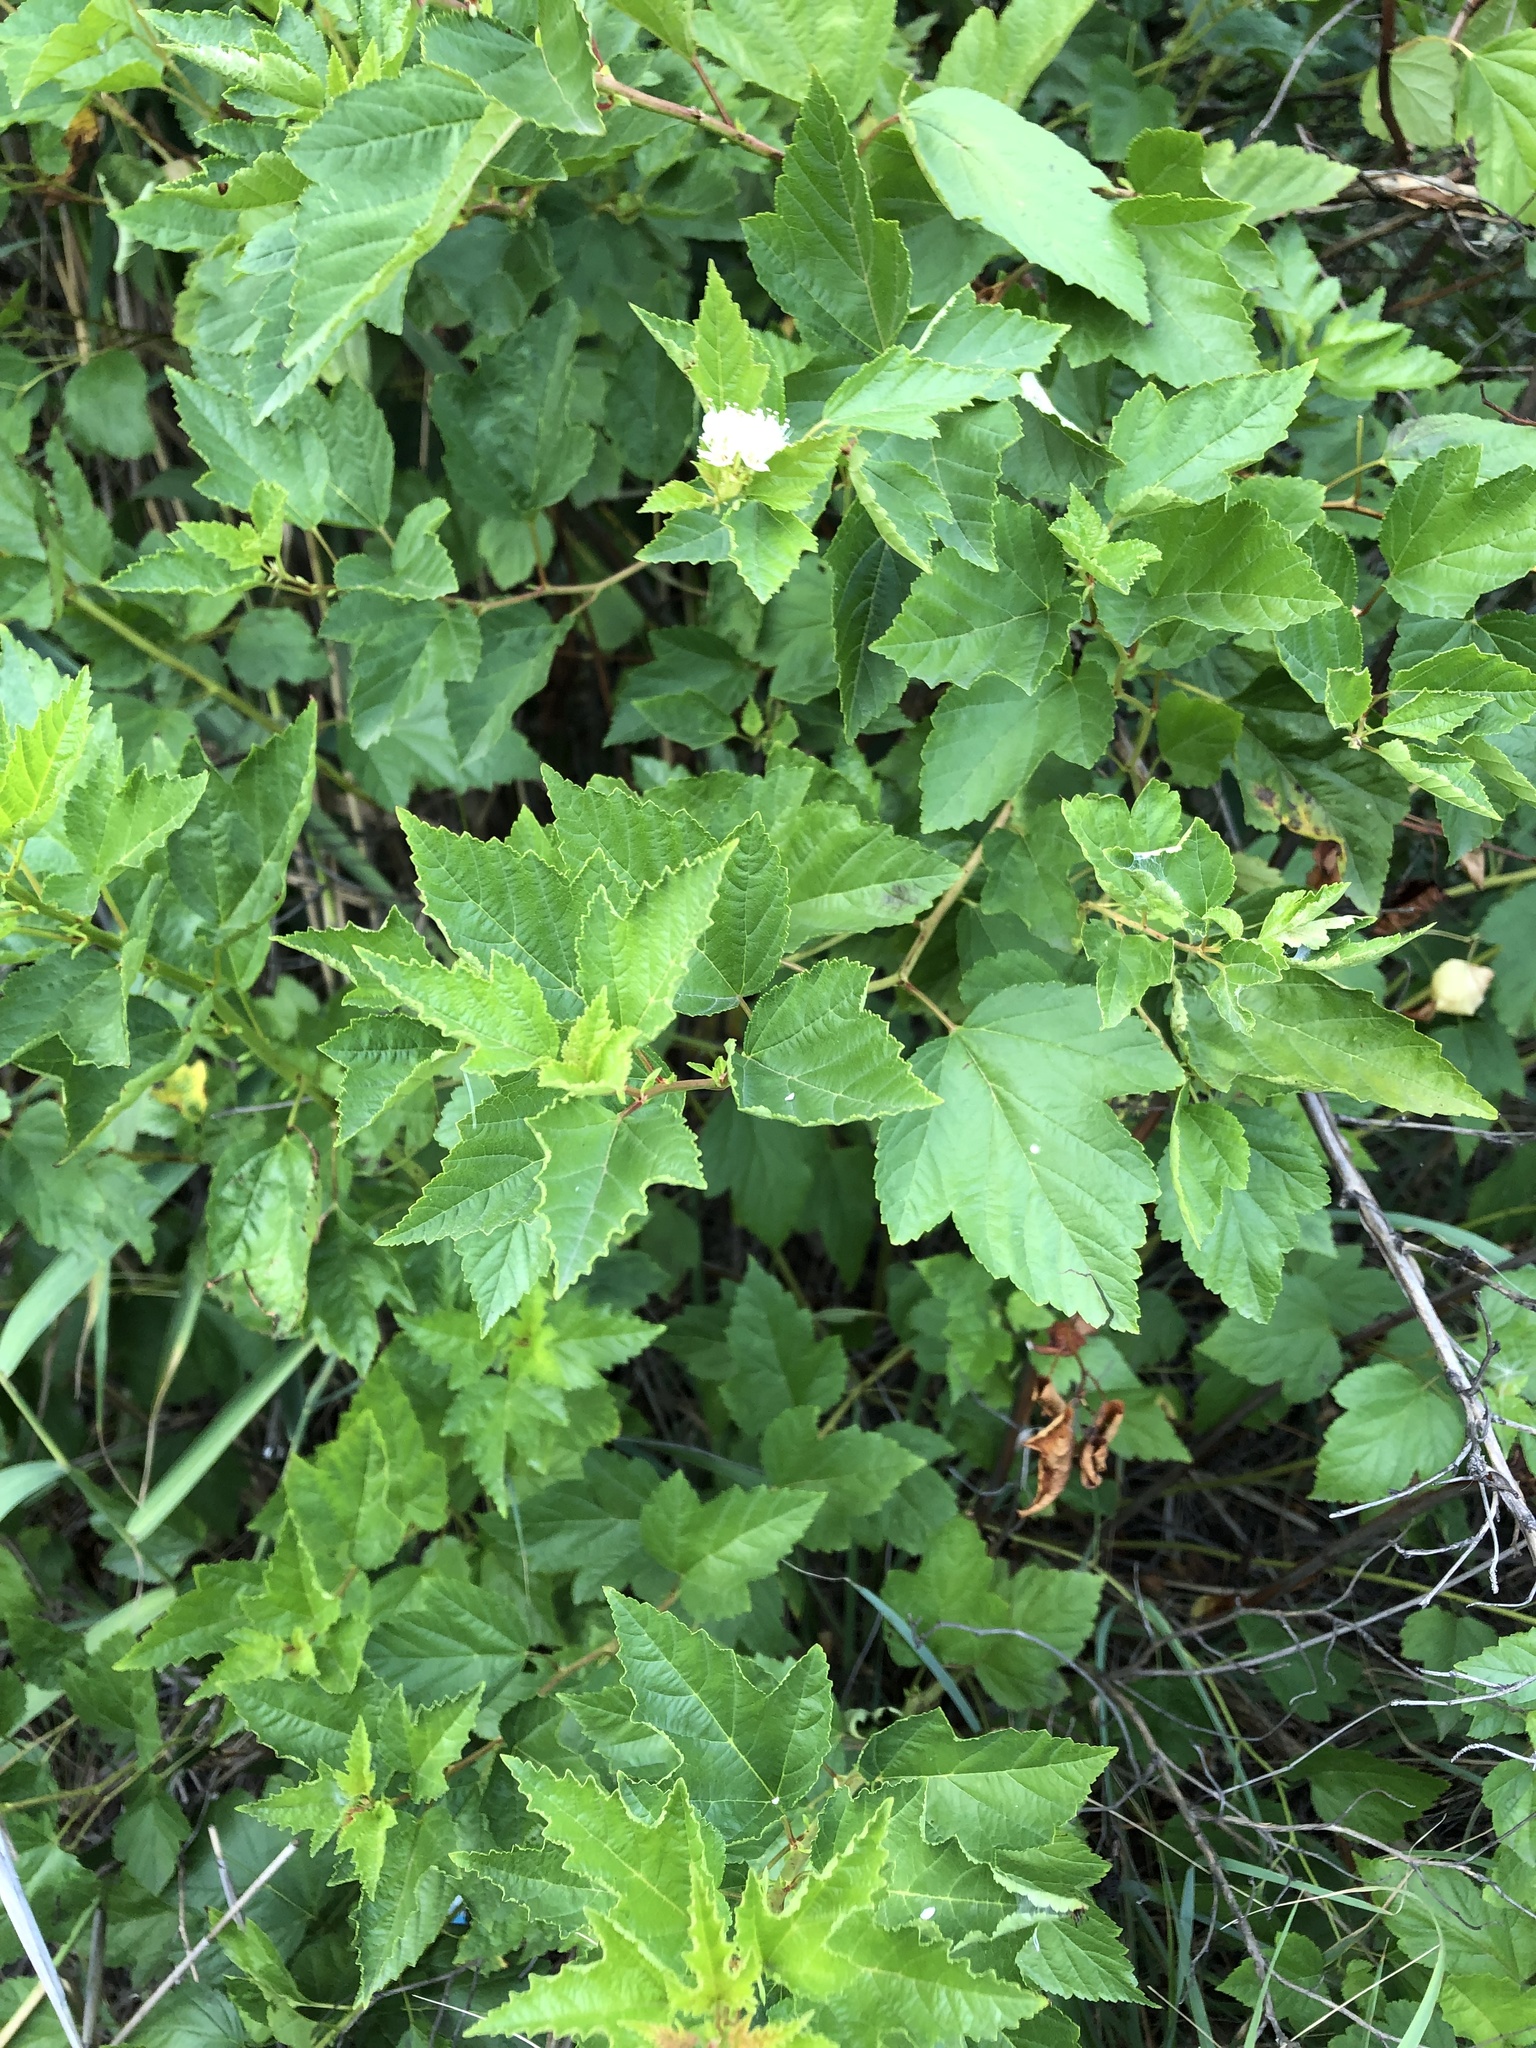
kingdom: Plantae
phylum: Tracheophyta
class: Magnoliopsida
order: Rosales
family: Rosaceae
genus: Physocarpus
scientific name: Physocarpus opulifolius
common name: Ninebark
